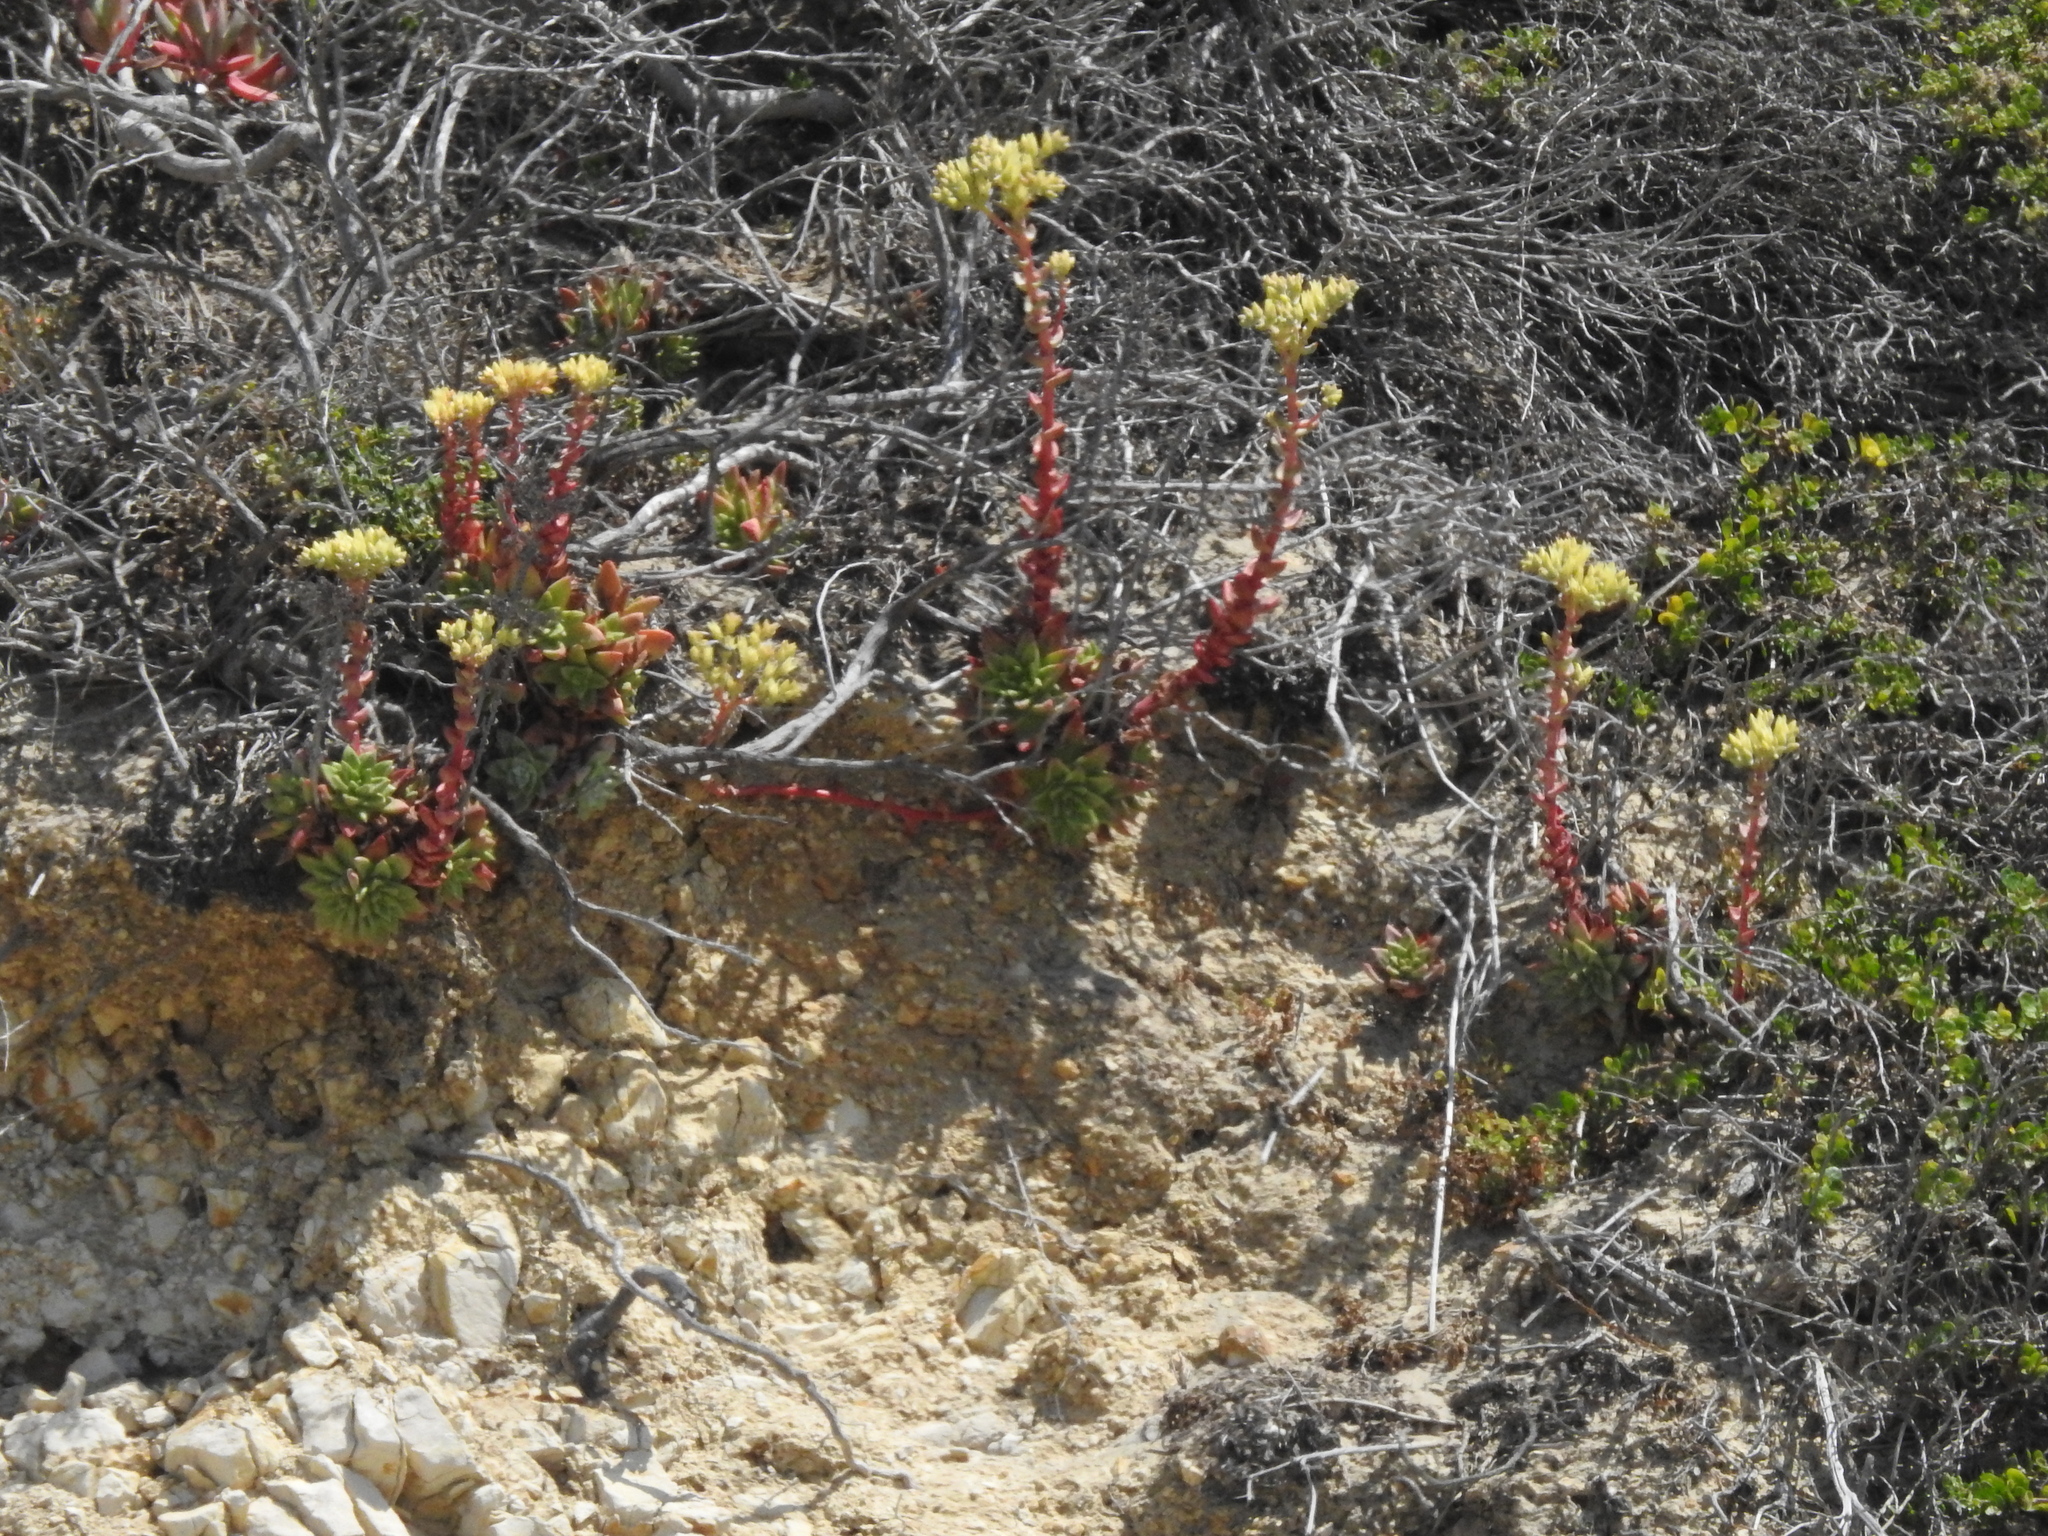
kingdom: Plantae
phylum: Tracheophyta
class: Magnoliopsida
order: Saxifragales
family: Crassulaceae
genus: Dudleya
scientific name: Dudleya farinosa
